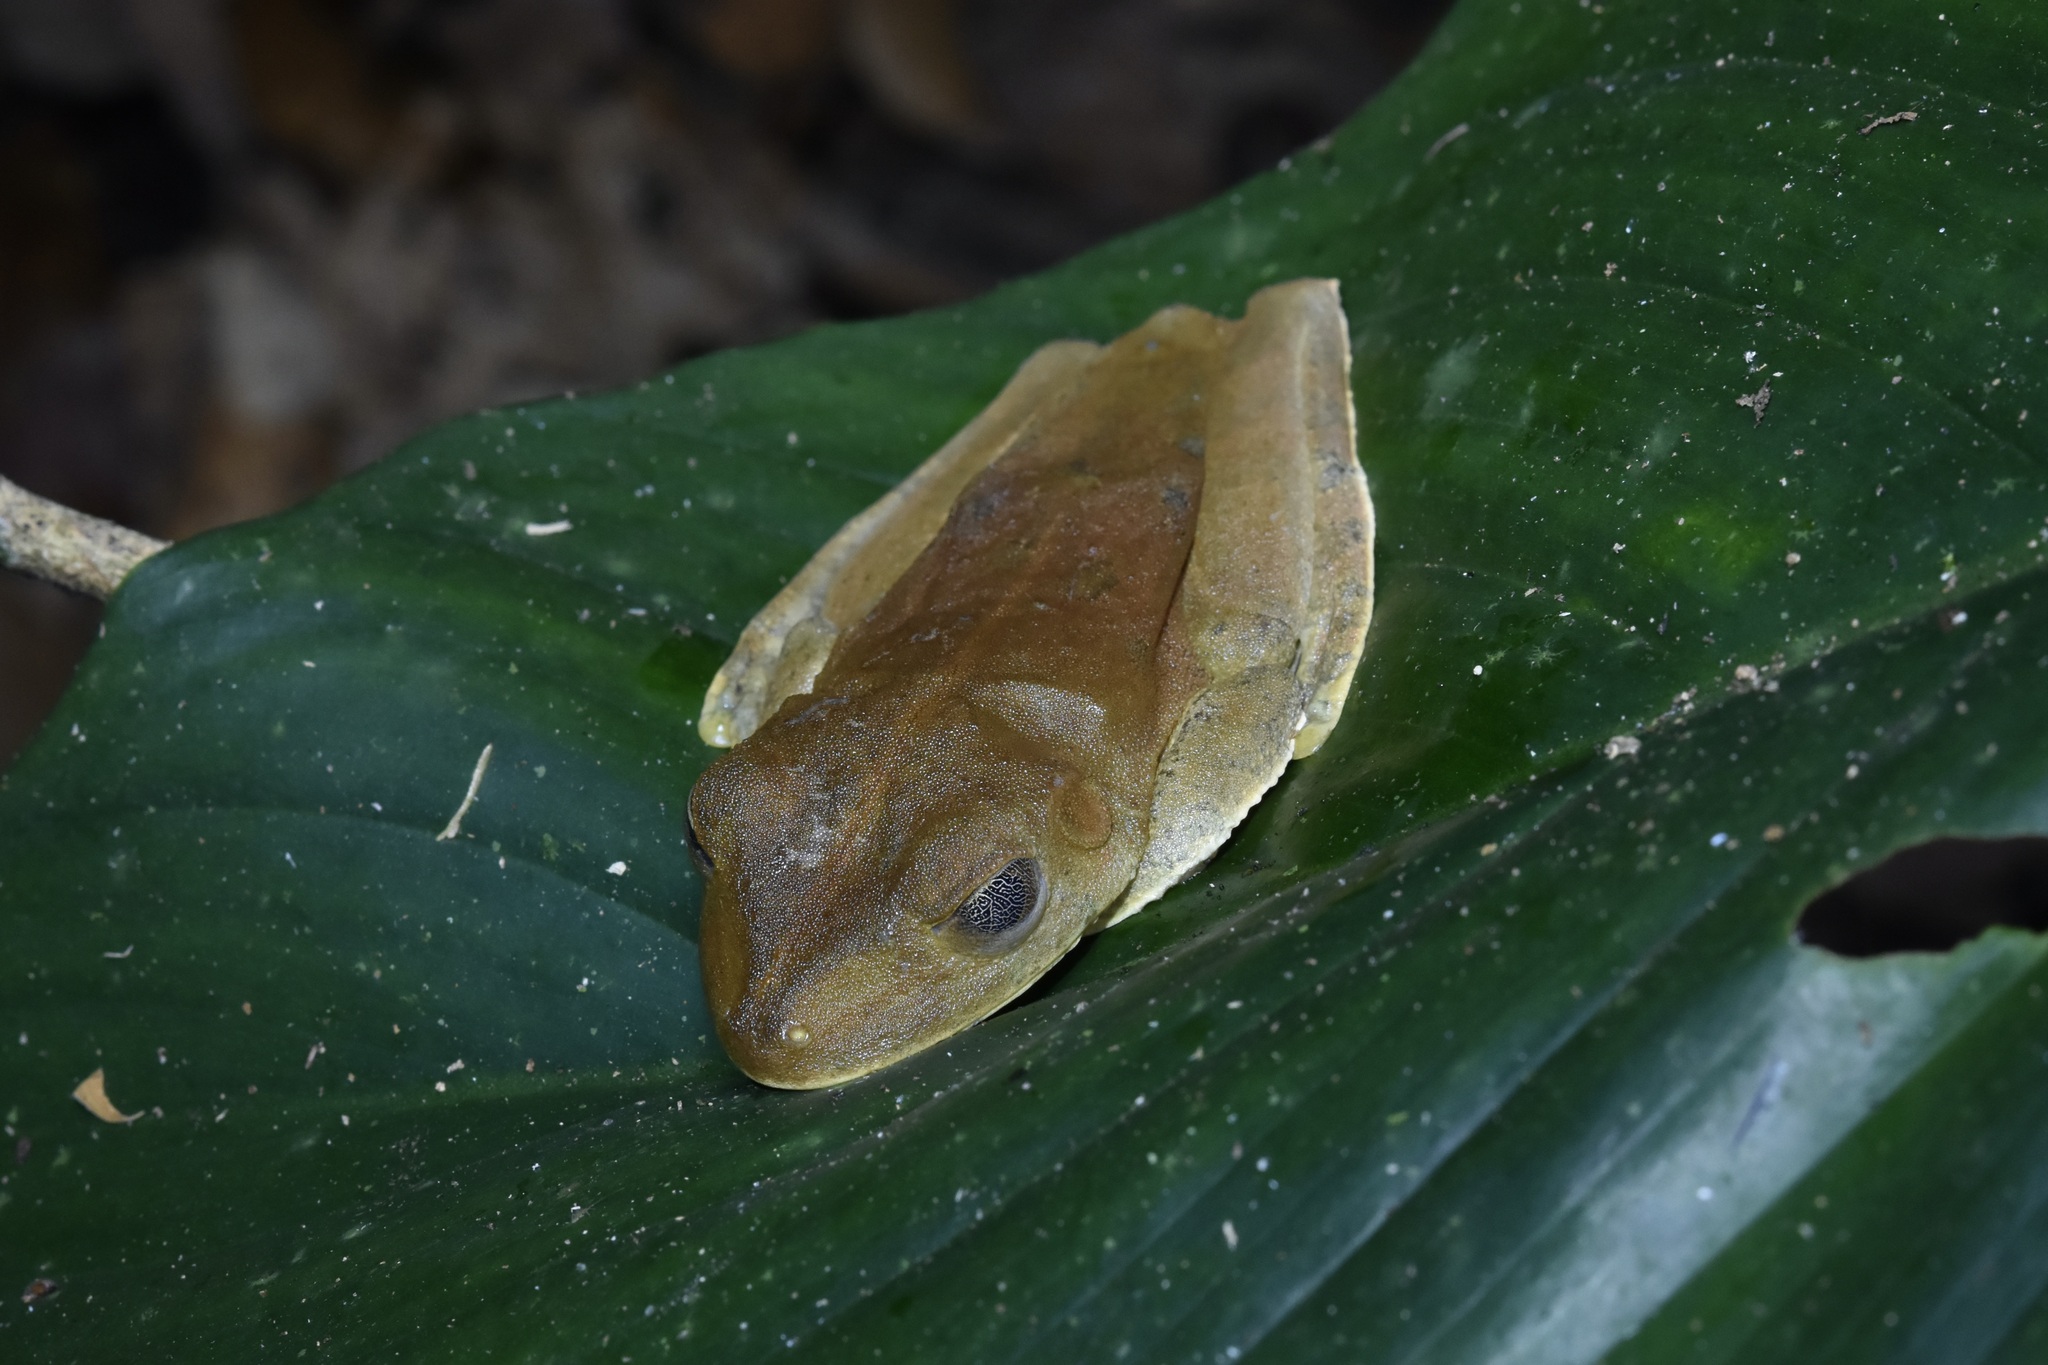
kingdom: Animalia
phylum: Chordata
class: Amphibia
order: Anura
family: Hylidae
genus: Boana
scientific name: Boana boans
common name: Giant gladiator treefrog
